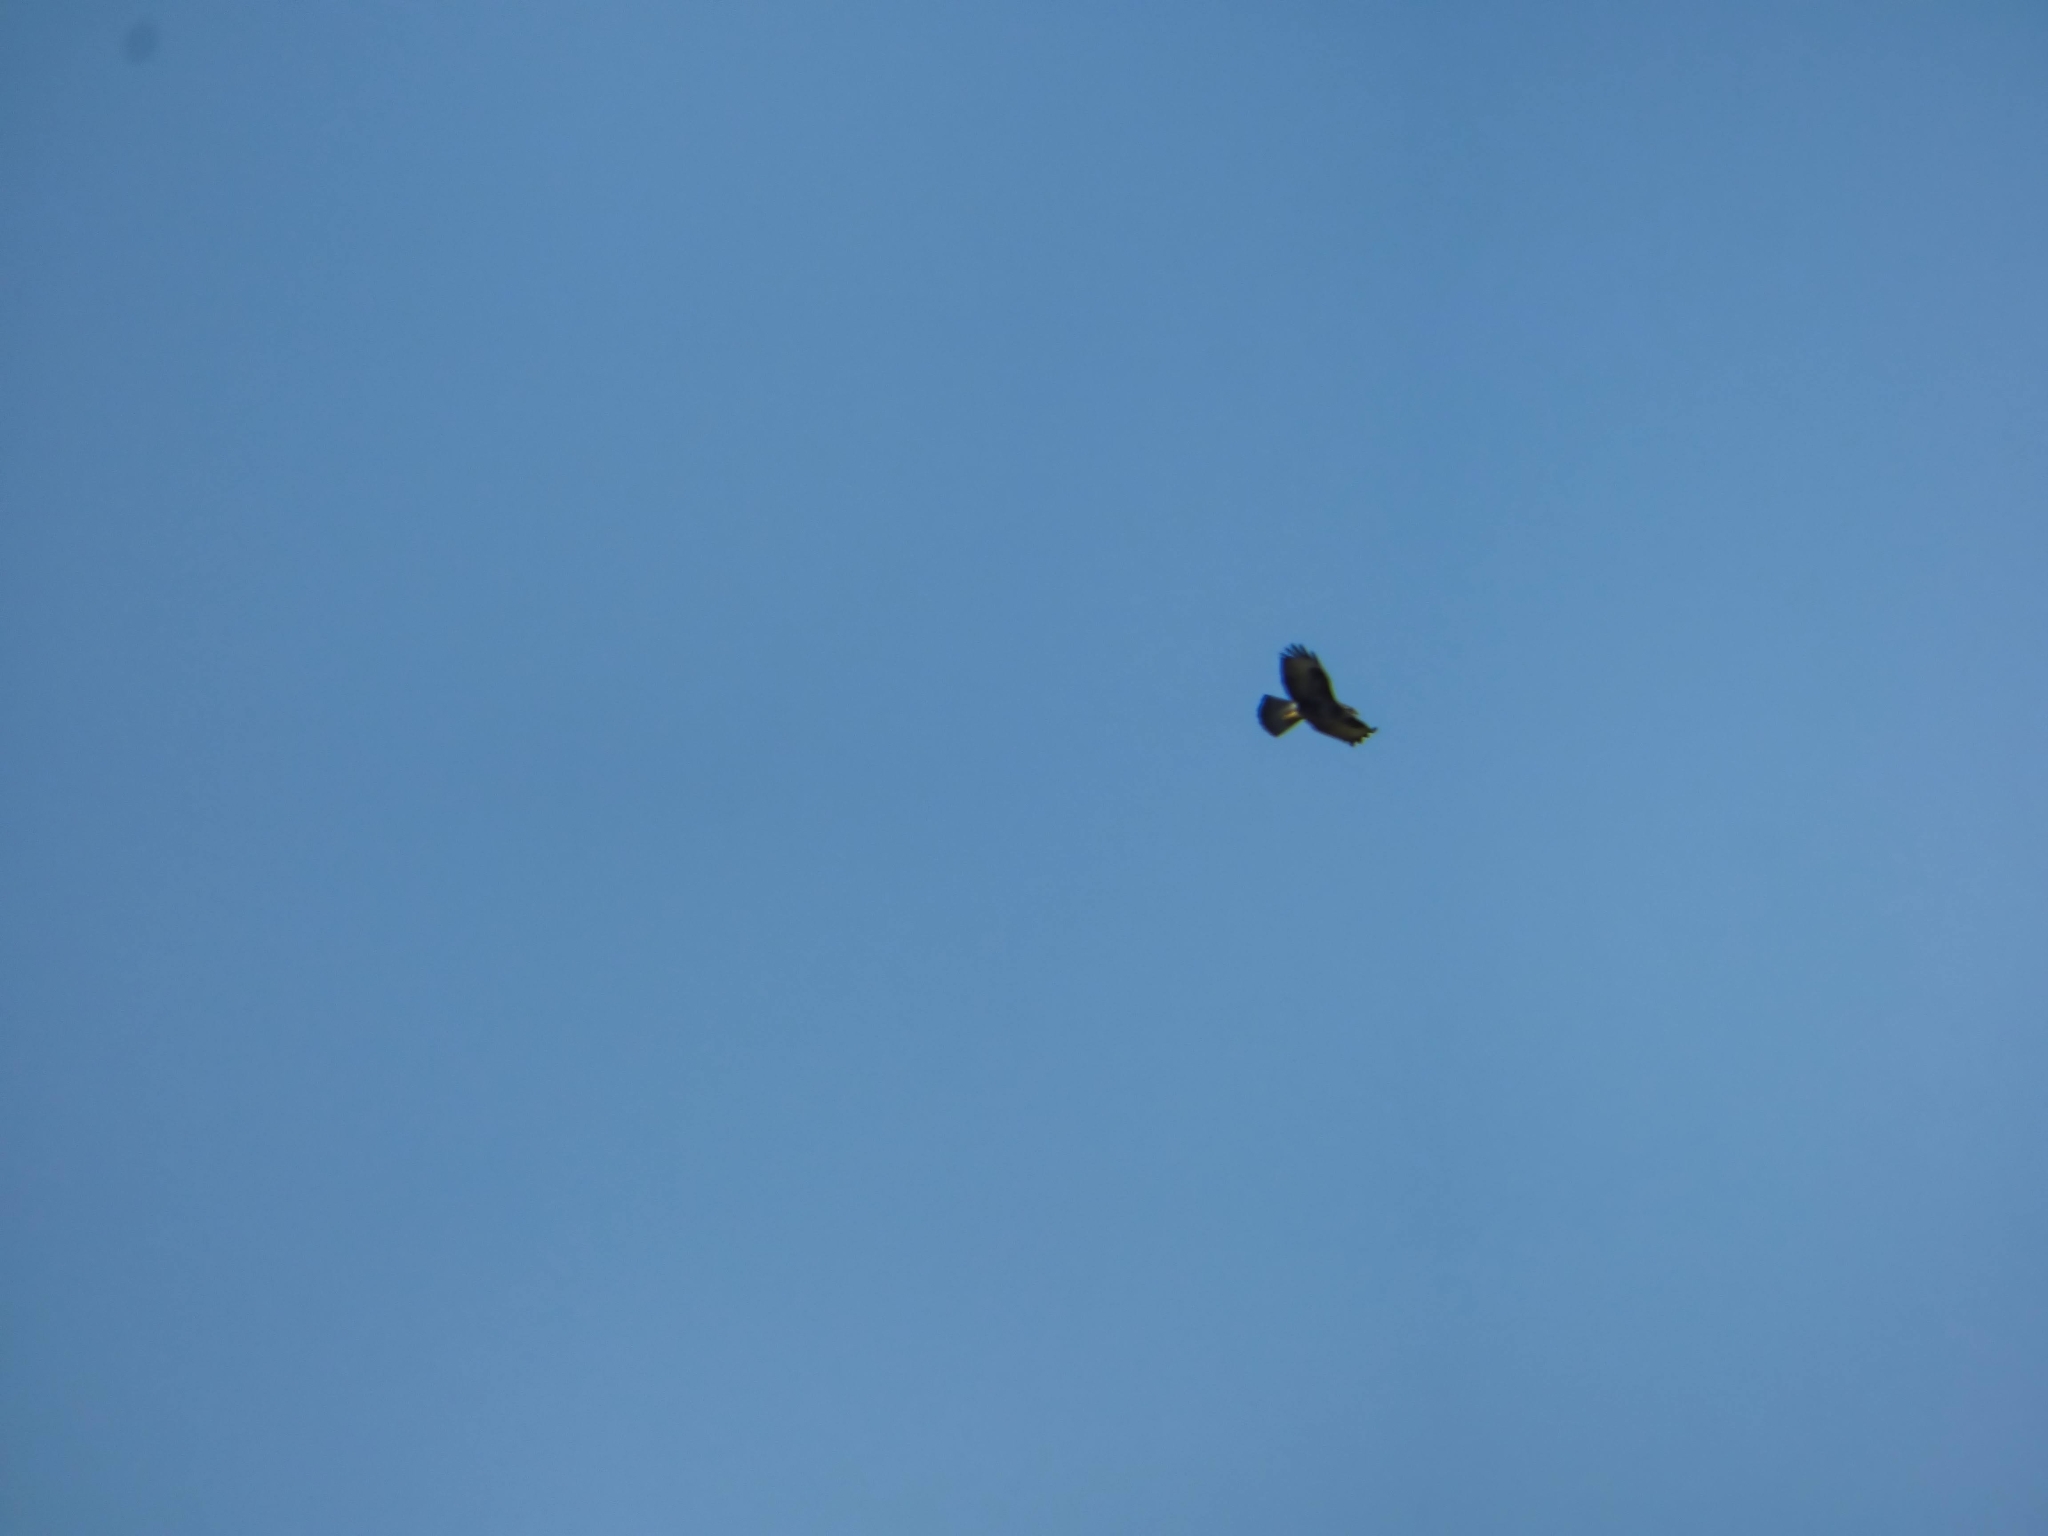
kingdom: Animalia
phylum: Chordata
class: Aves
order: Accipitriformes
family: Accipitridae
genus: Buteo
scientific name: Buteo buteo
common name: Common buzzard
